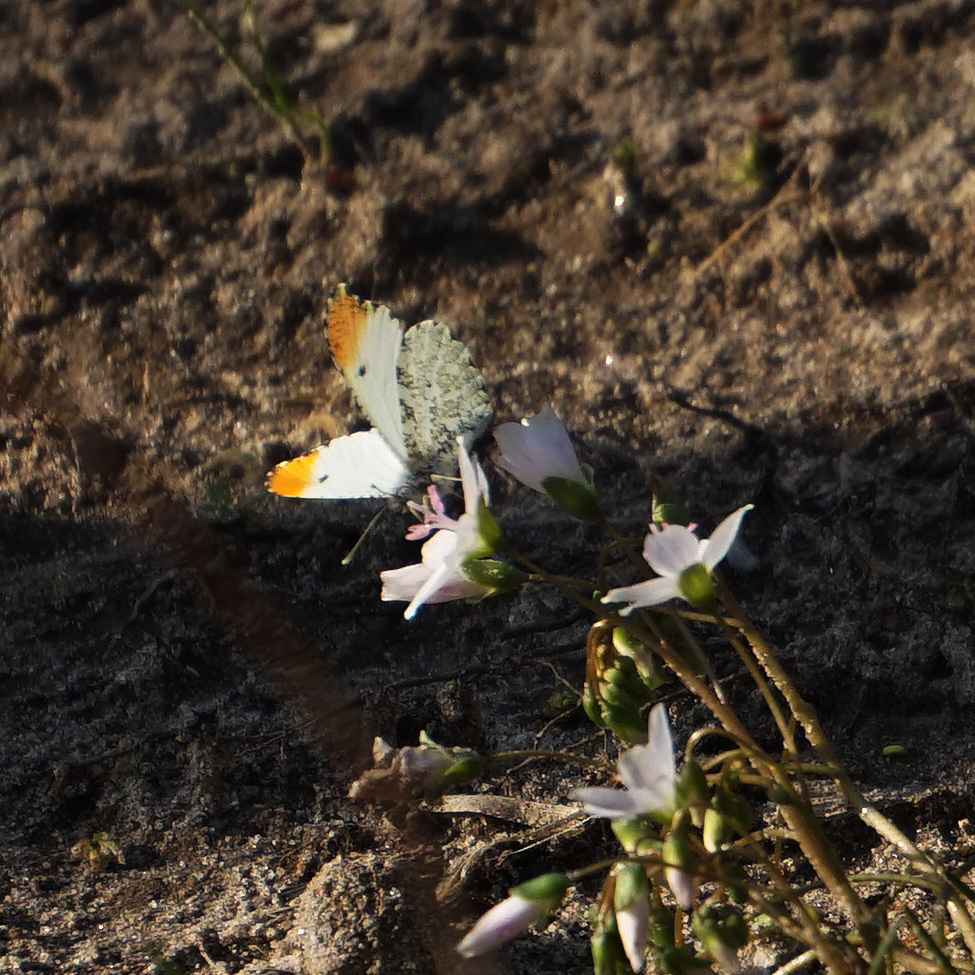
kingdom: Animalia
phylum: Arthropoda
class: Insecta
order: Lepidoptera
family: Pieridae
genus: Anthocharis
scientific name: Anthocharis midea
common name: Falcate orangetip
